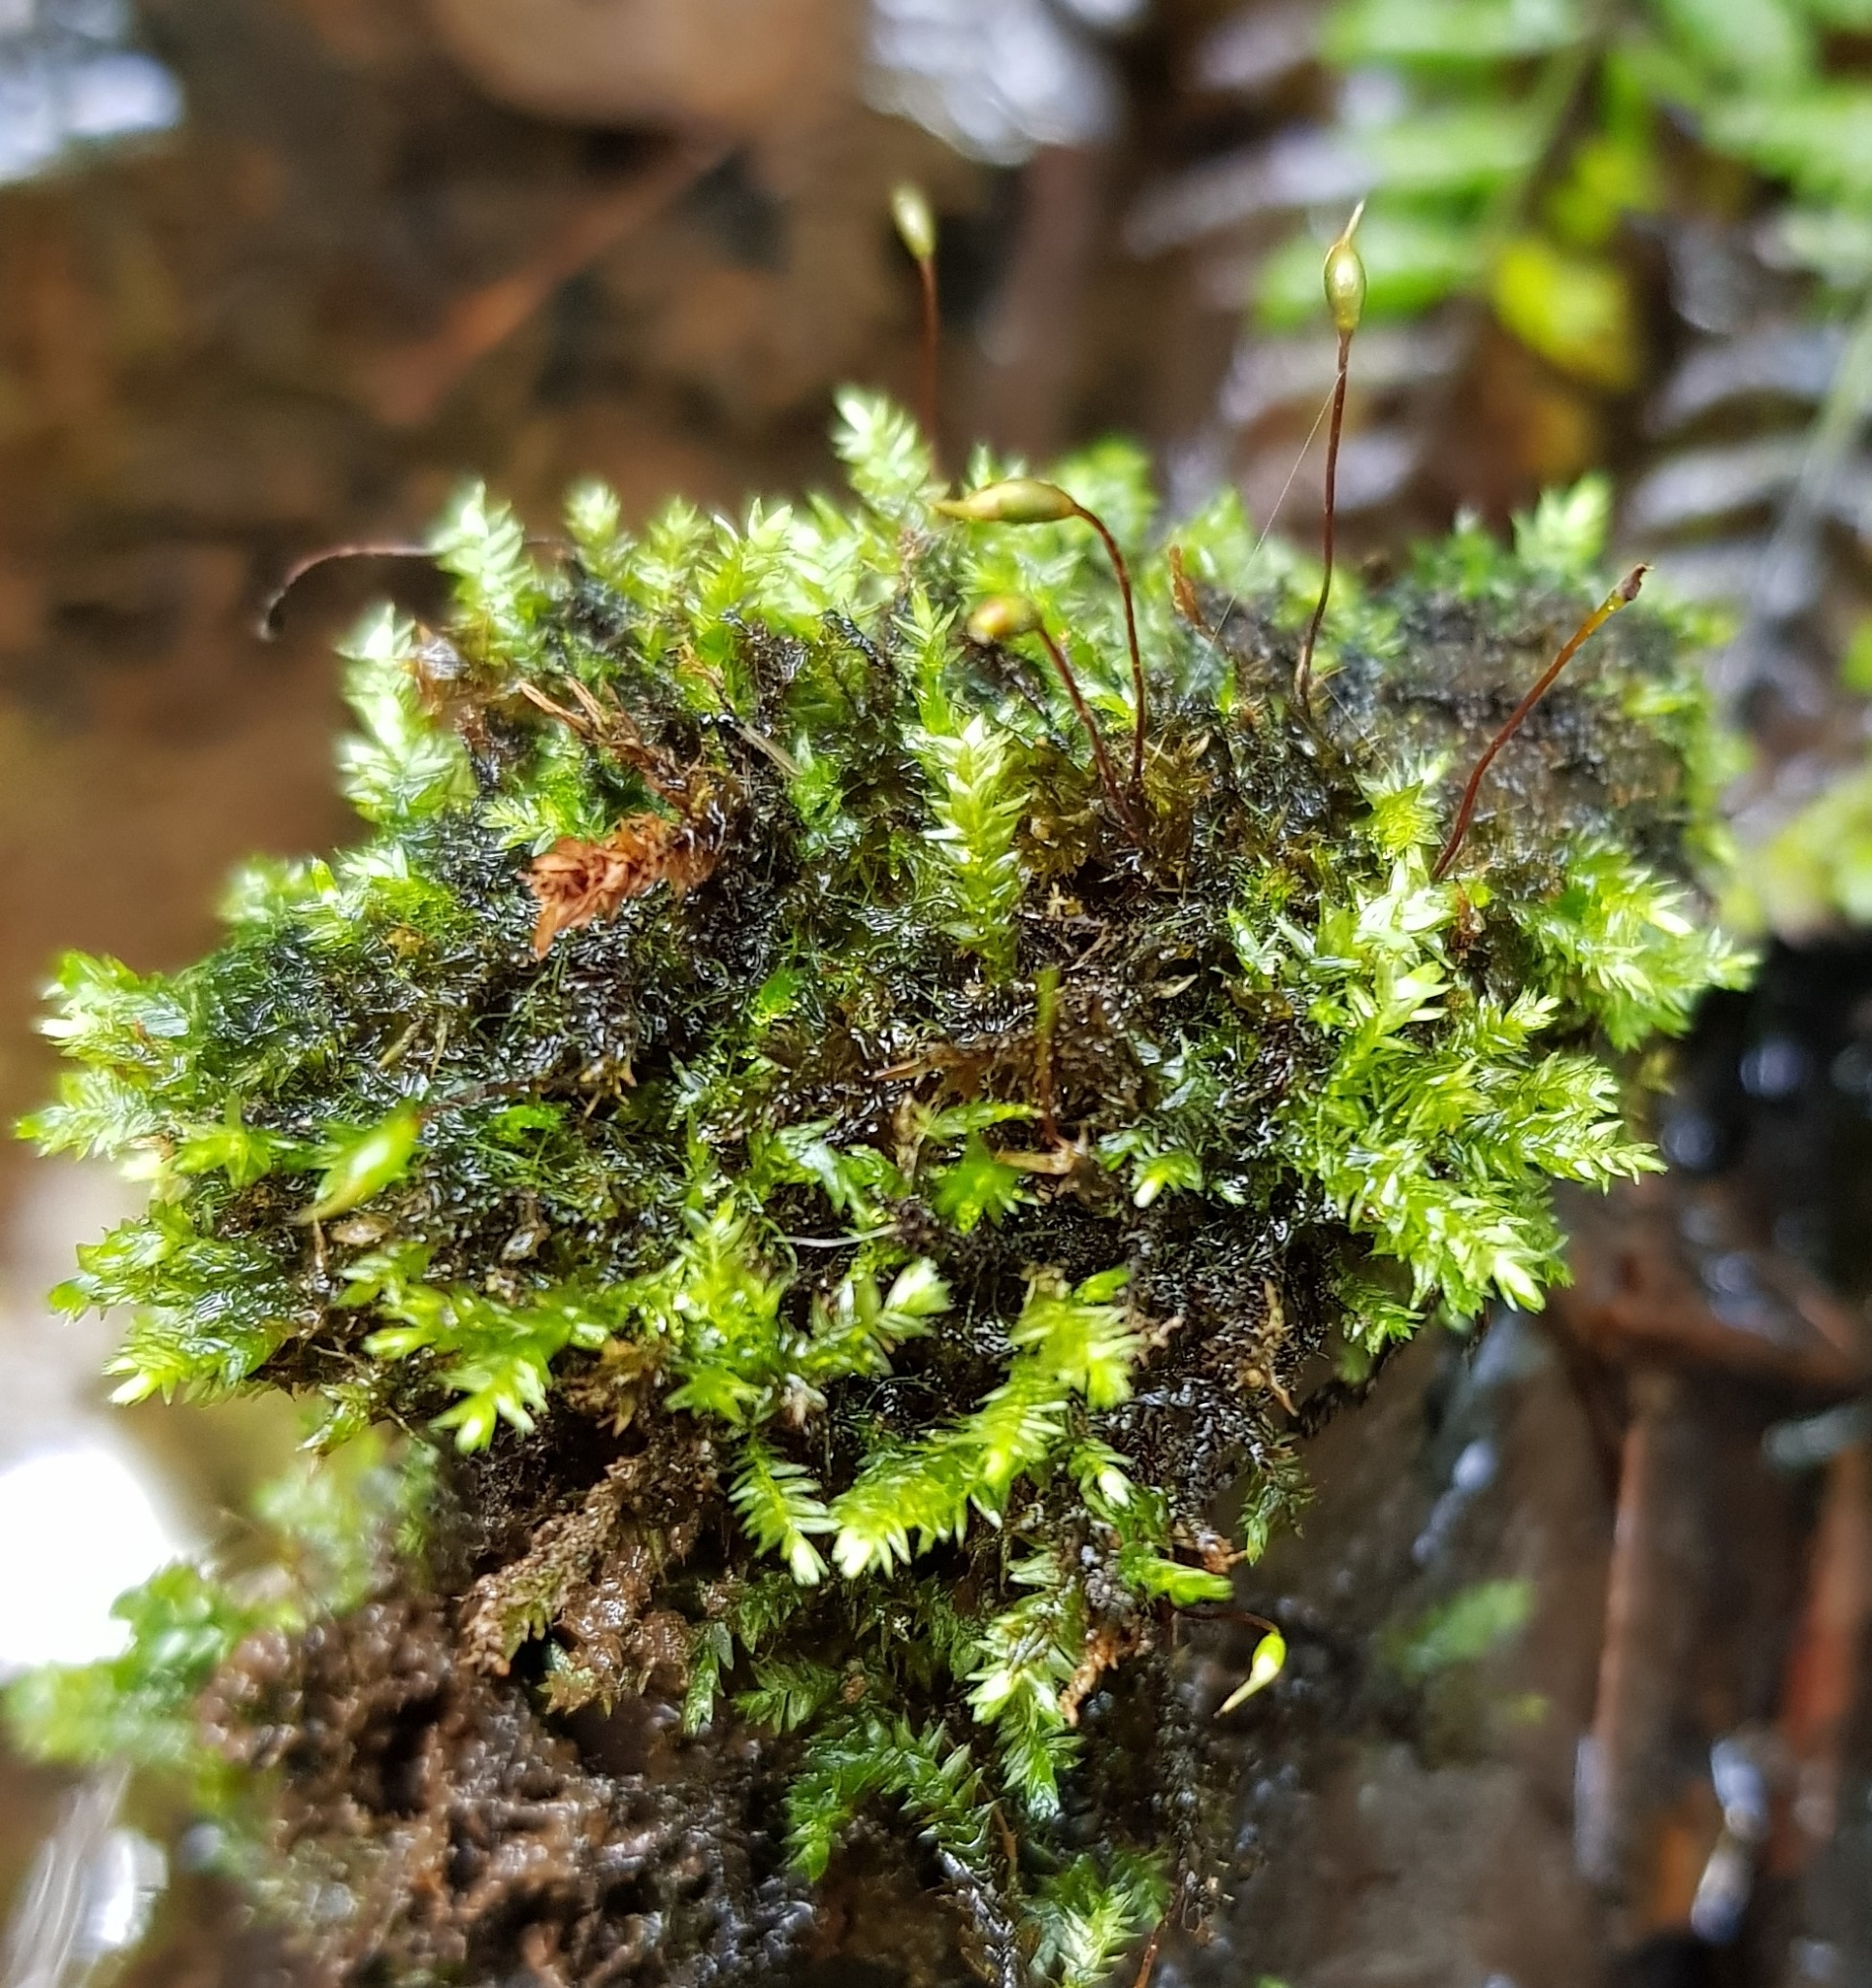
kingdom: Plantae
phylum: Bryophyta
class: Bryopsida
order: Hypnales
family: Brachytheciaceae
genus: Rhynchostegium
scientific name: Rhynchostegium riparioides
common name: Platyhypnidium moss
